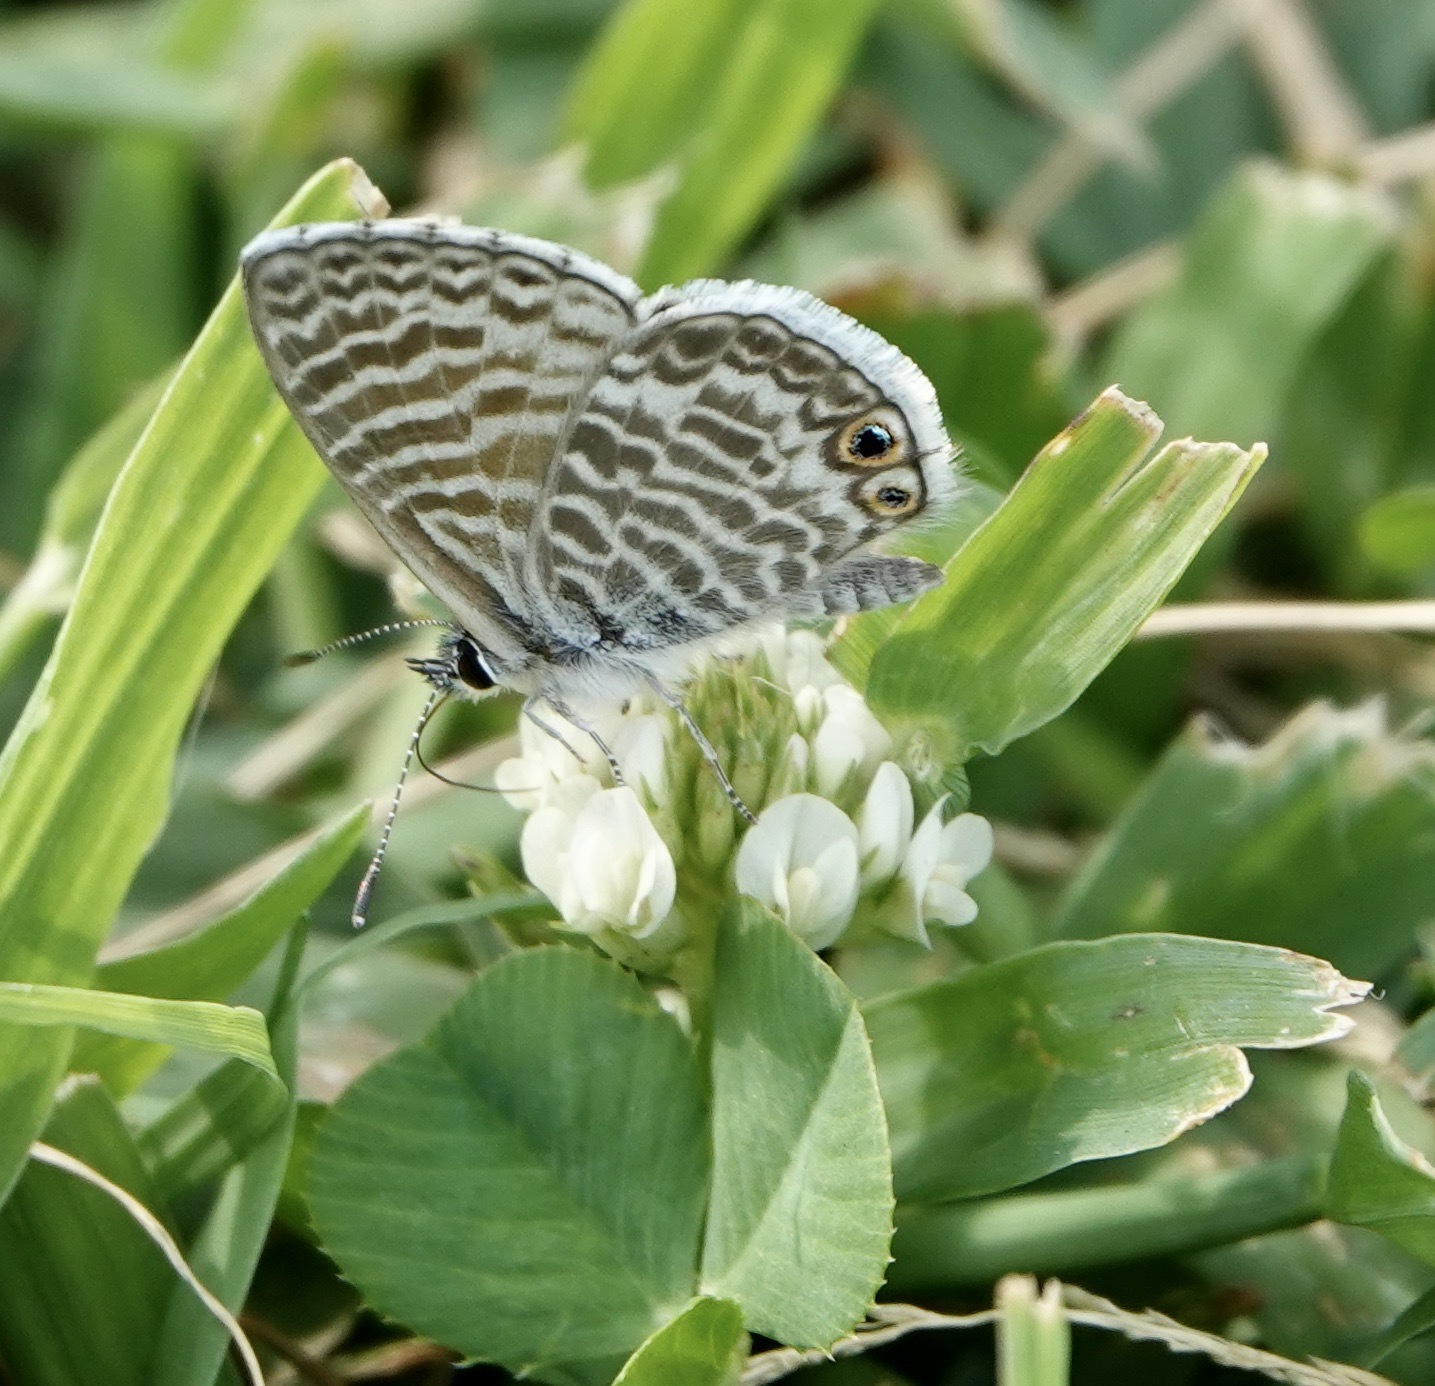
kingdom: Animalia
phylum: Arthropoda
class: Insecta
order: Lepidoptera
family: Lycaenidae
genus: Leptotes
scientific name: Leptotes marina
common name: Marine blue
